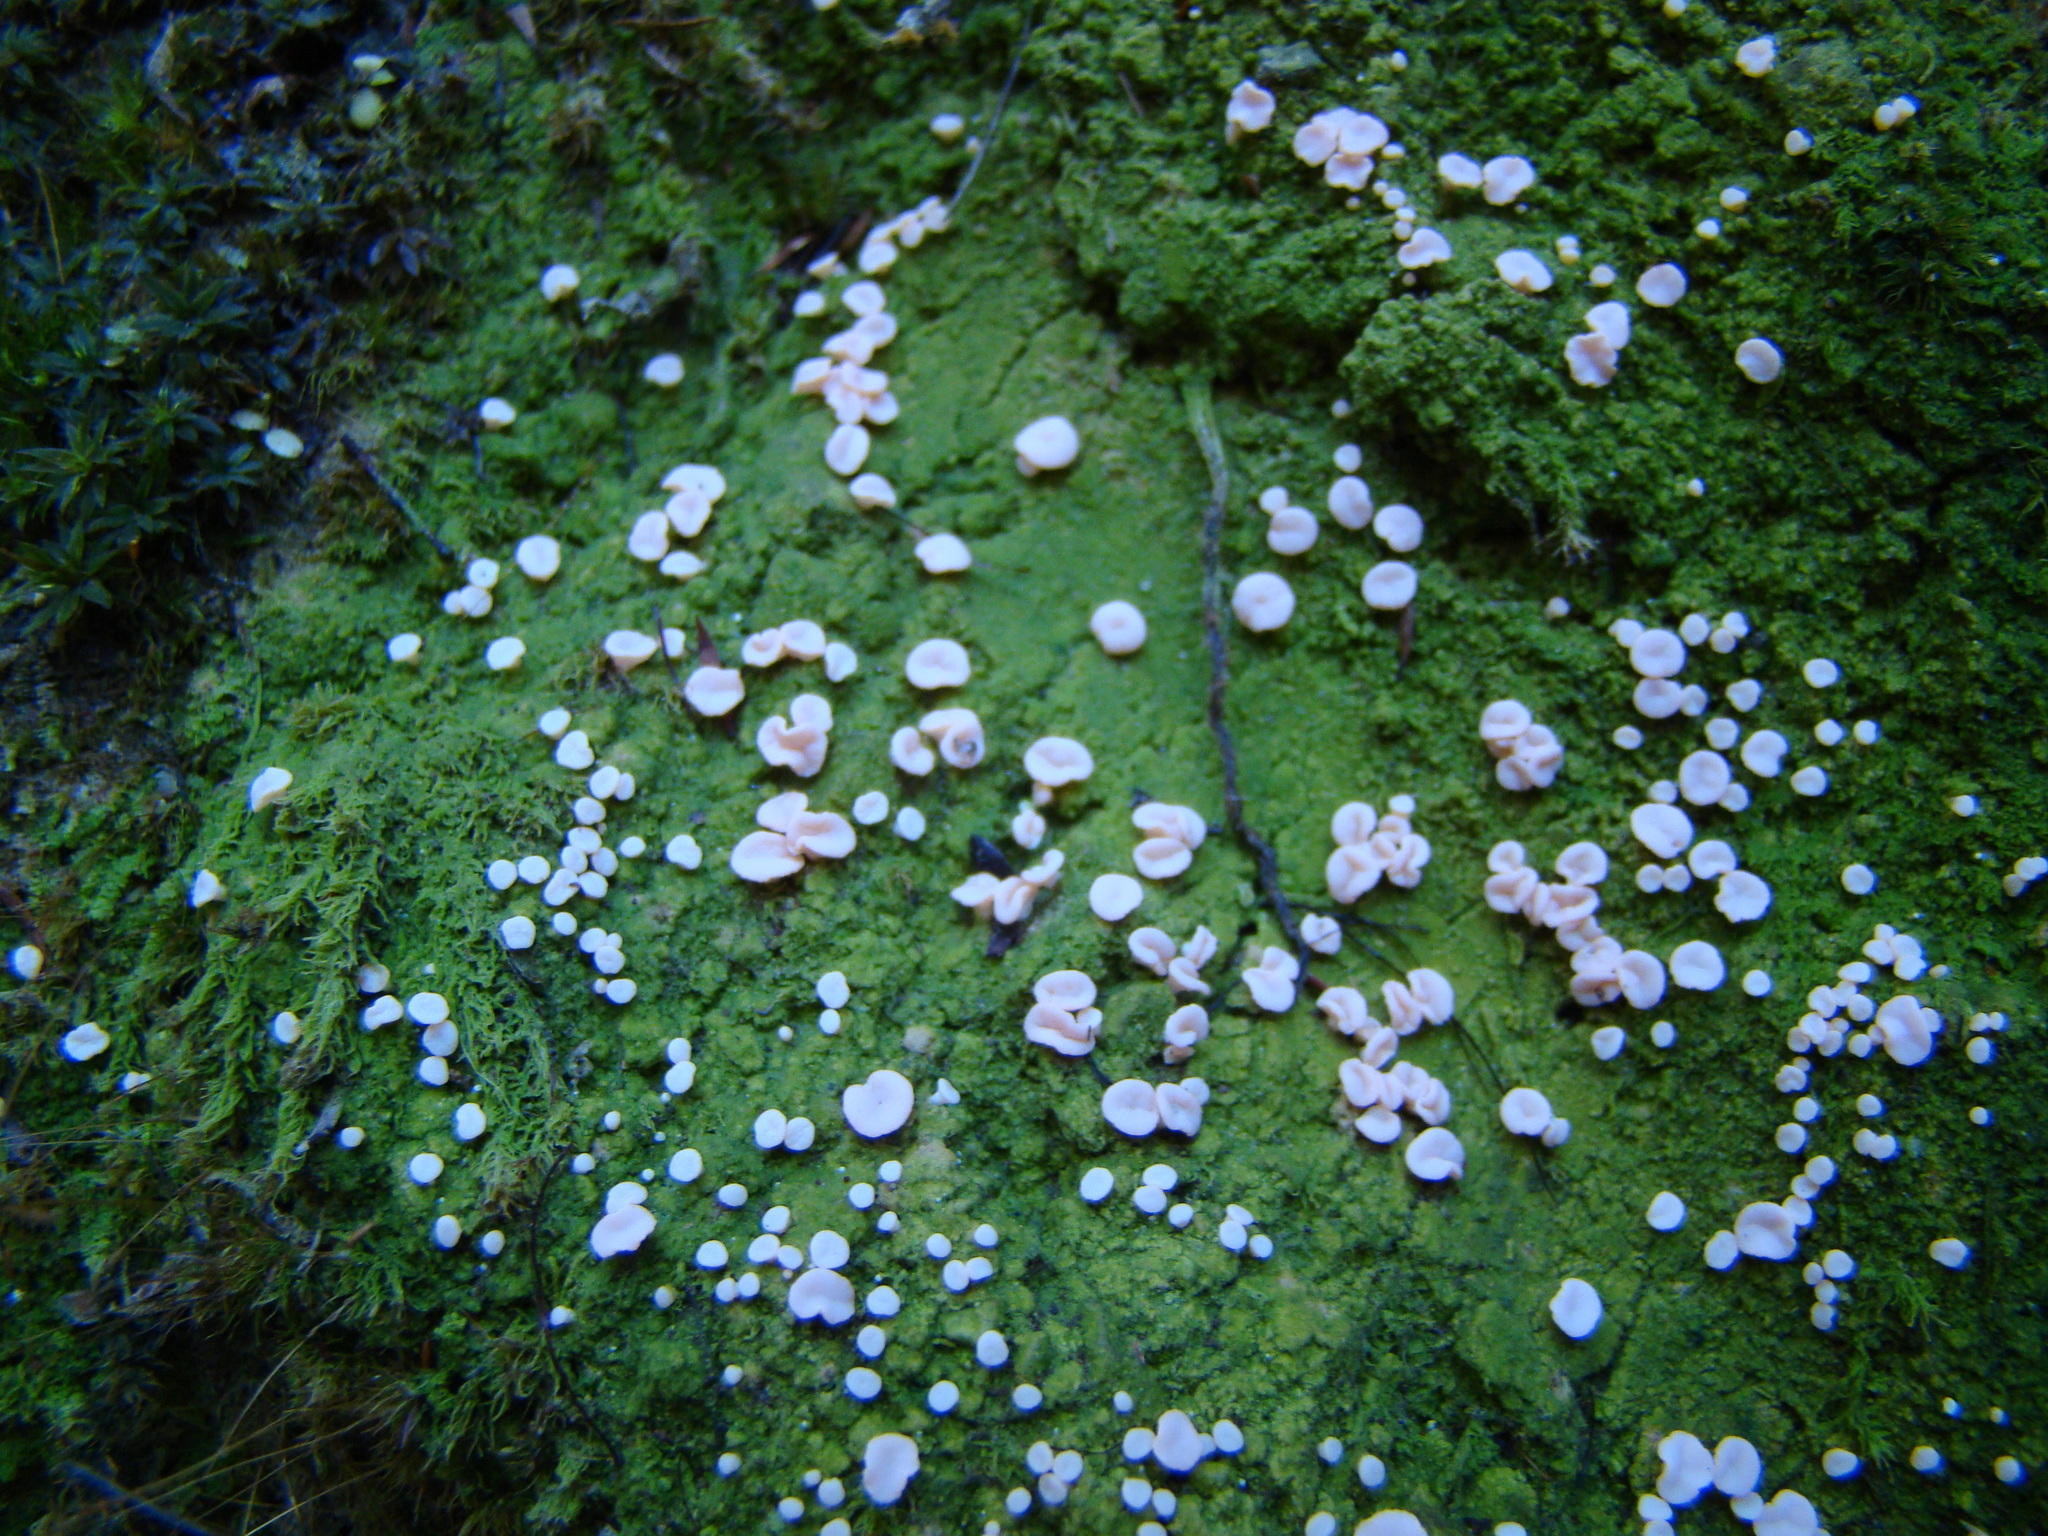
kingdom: Fungi
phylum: Ascomycota
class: Lecanoromycetes
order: Pertusariales
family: Icmadophilaceae
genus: Dibaeis
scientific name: Dibaeis absoluta
